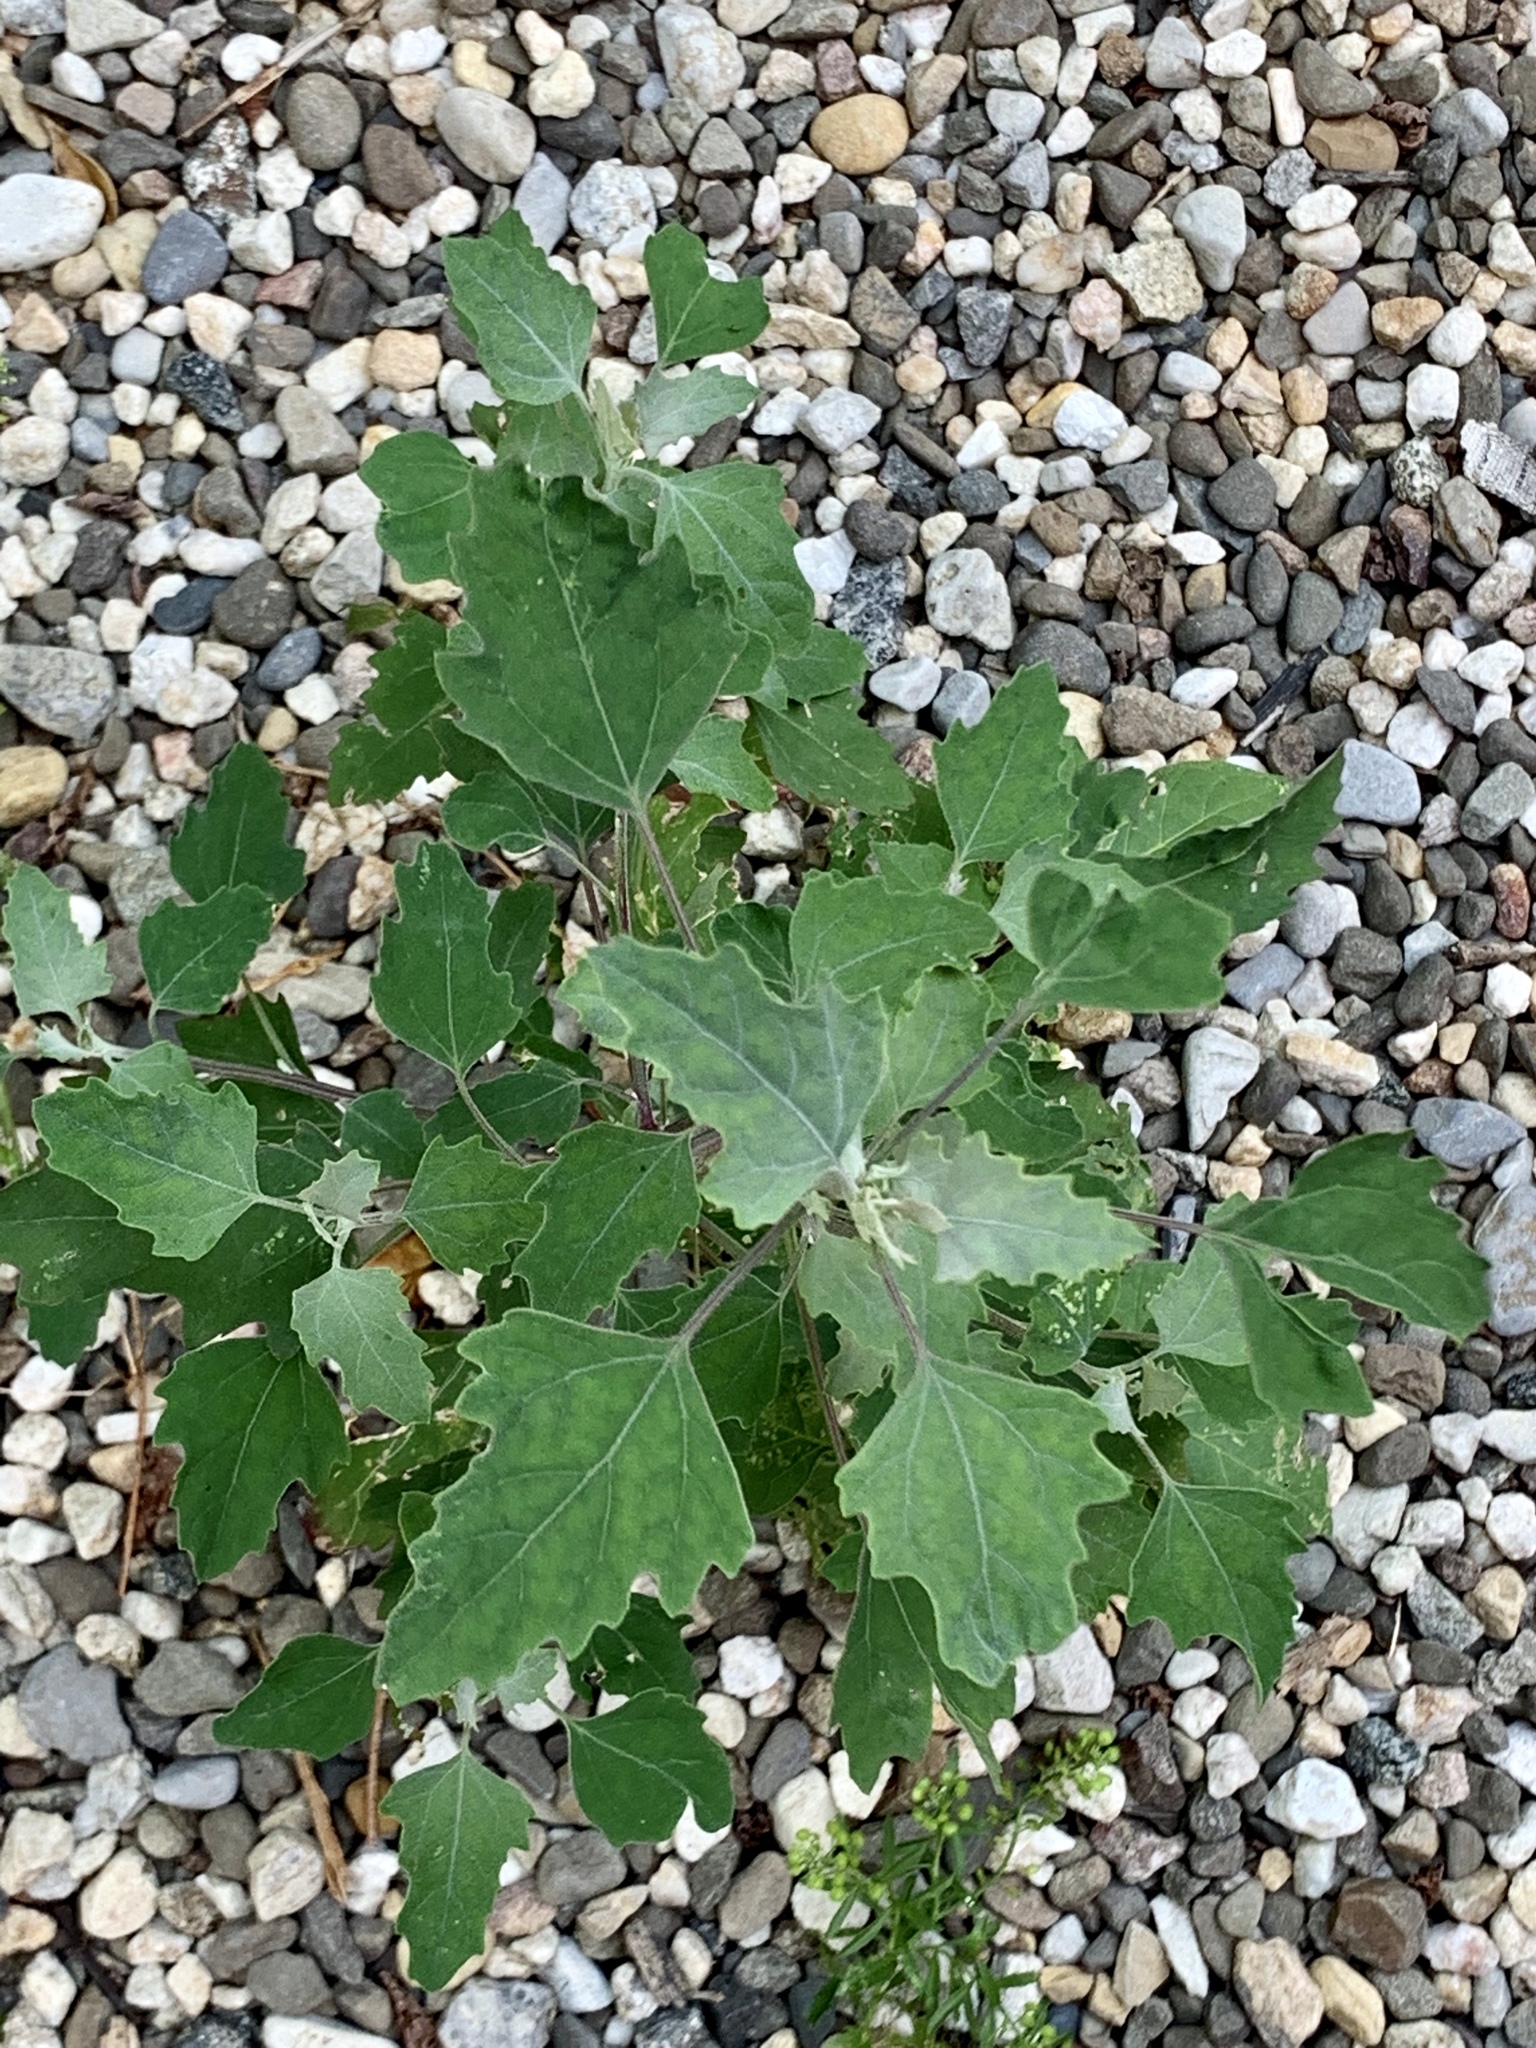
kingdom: Plantae
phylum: Tracheophyta
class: Magnoliopsida
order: Caryophyllales
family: Amaranthaceae
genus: Chenopodium
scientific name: Chenopodium album
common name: Fat-hen
